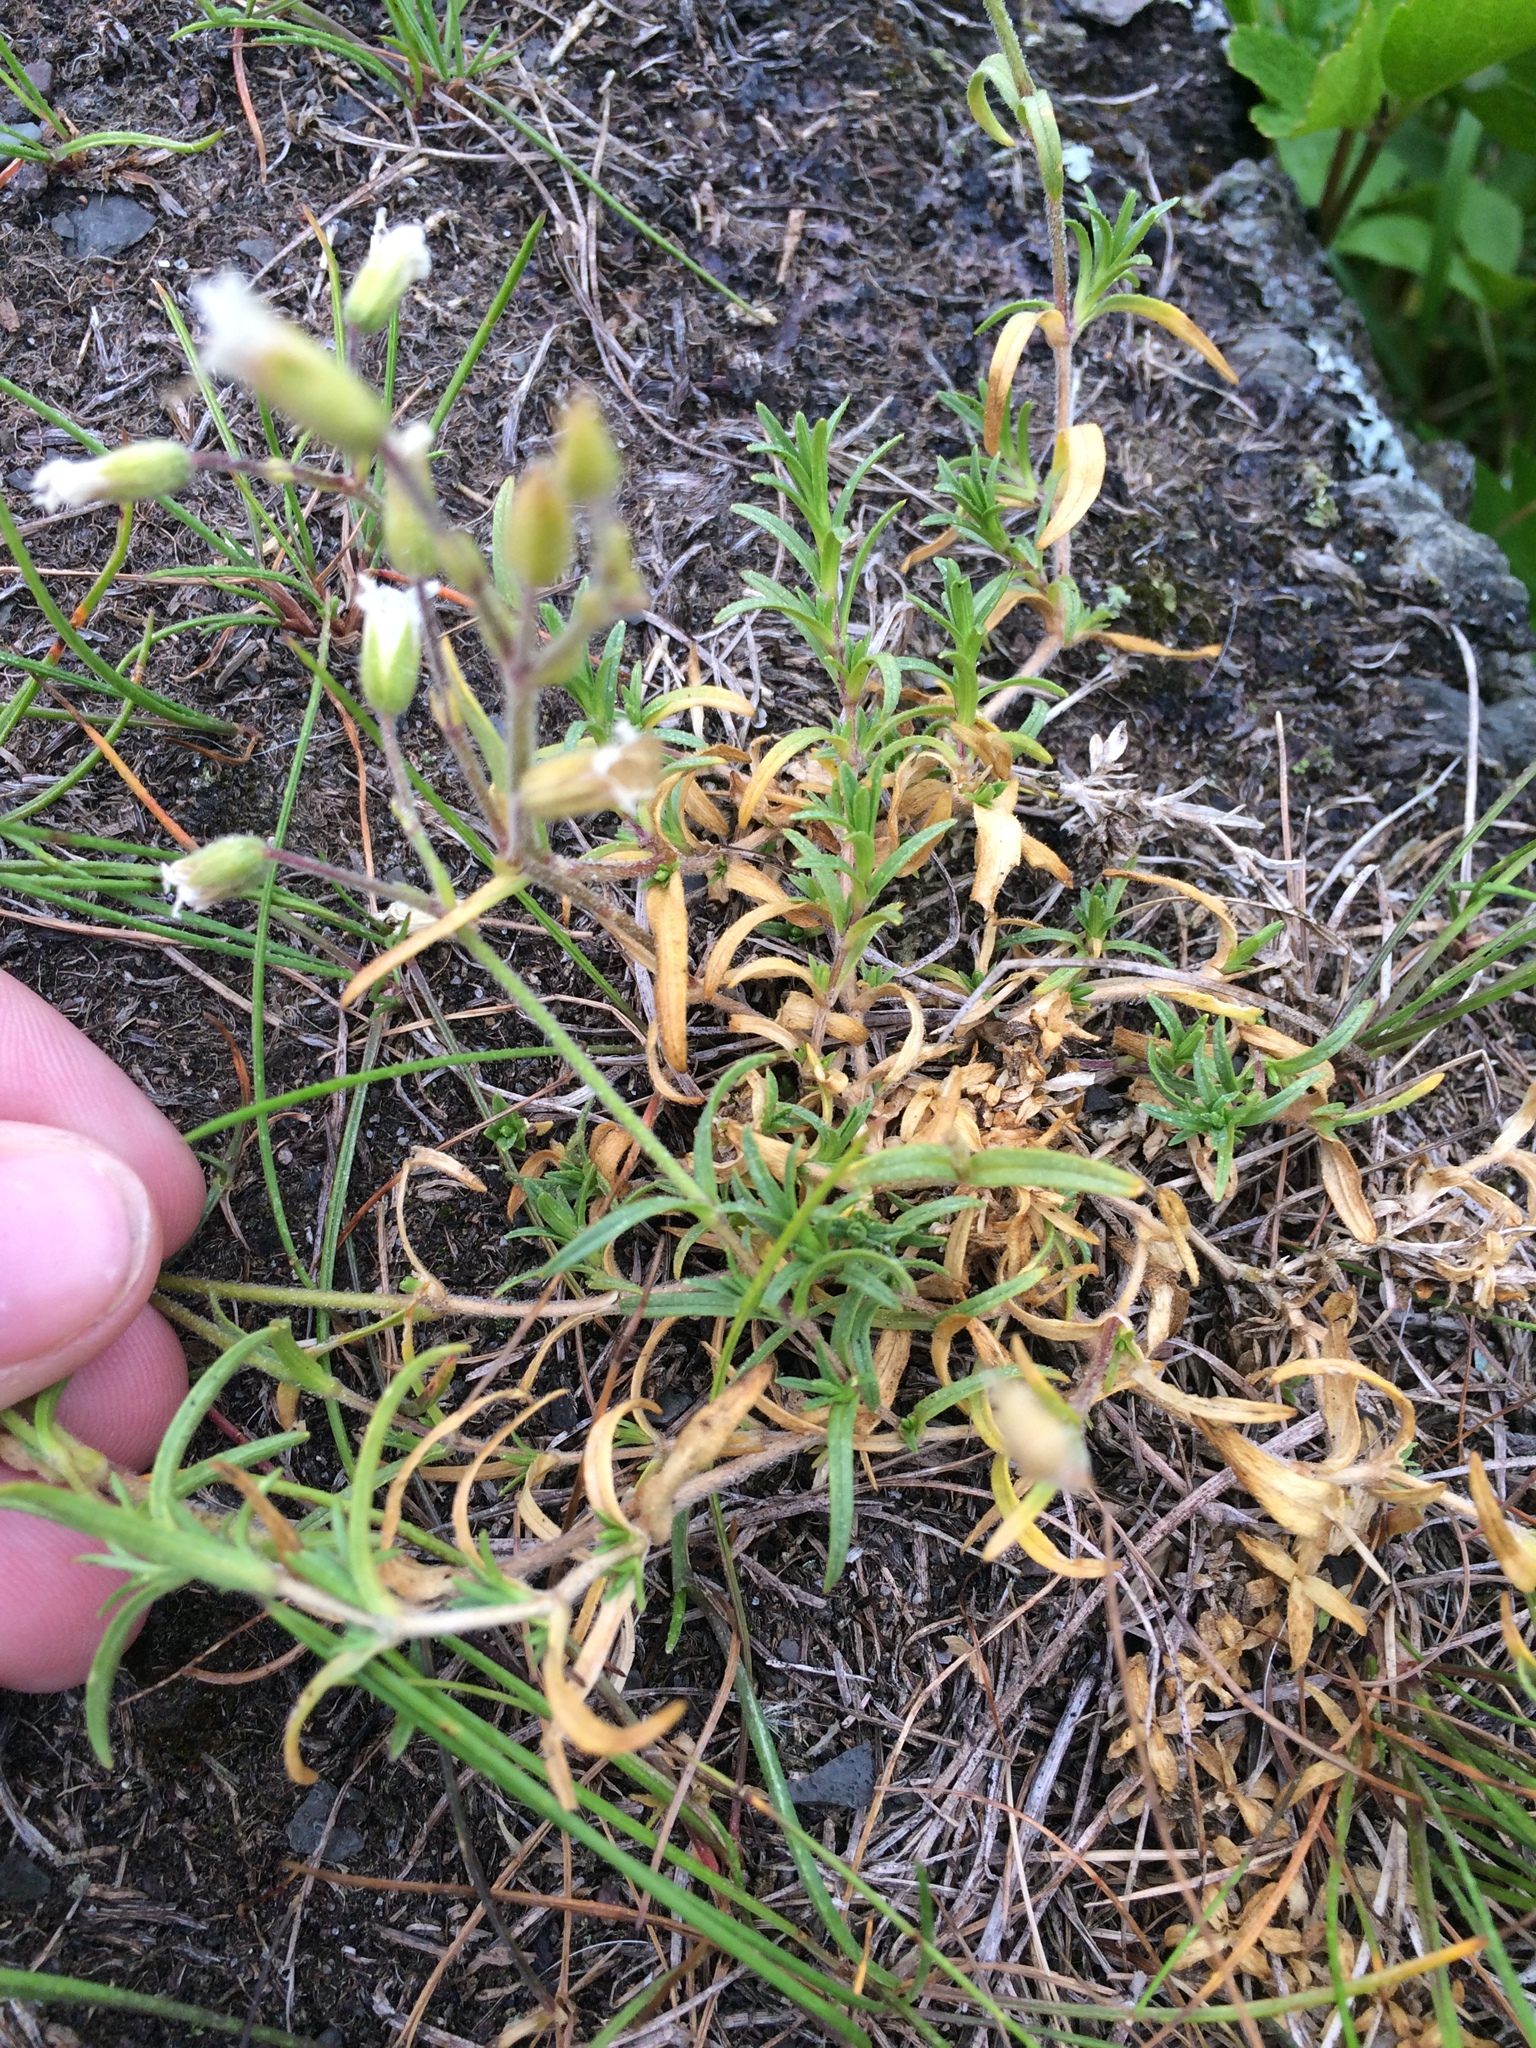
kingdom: Plantae
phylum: Tracheophyta
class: Magnoliopsida
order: Caryophyllales
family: Caryophyllaceae
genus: Cerastium
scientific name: Cerastium arvense
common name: Field mouse-ear
